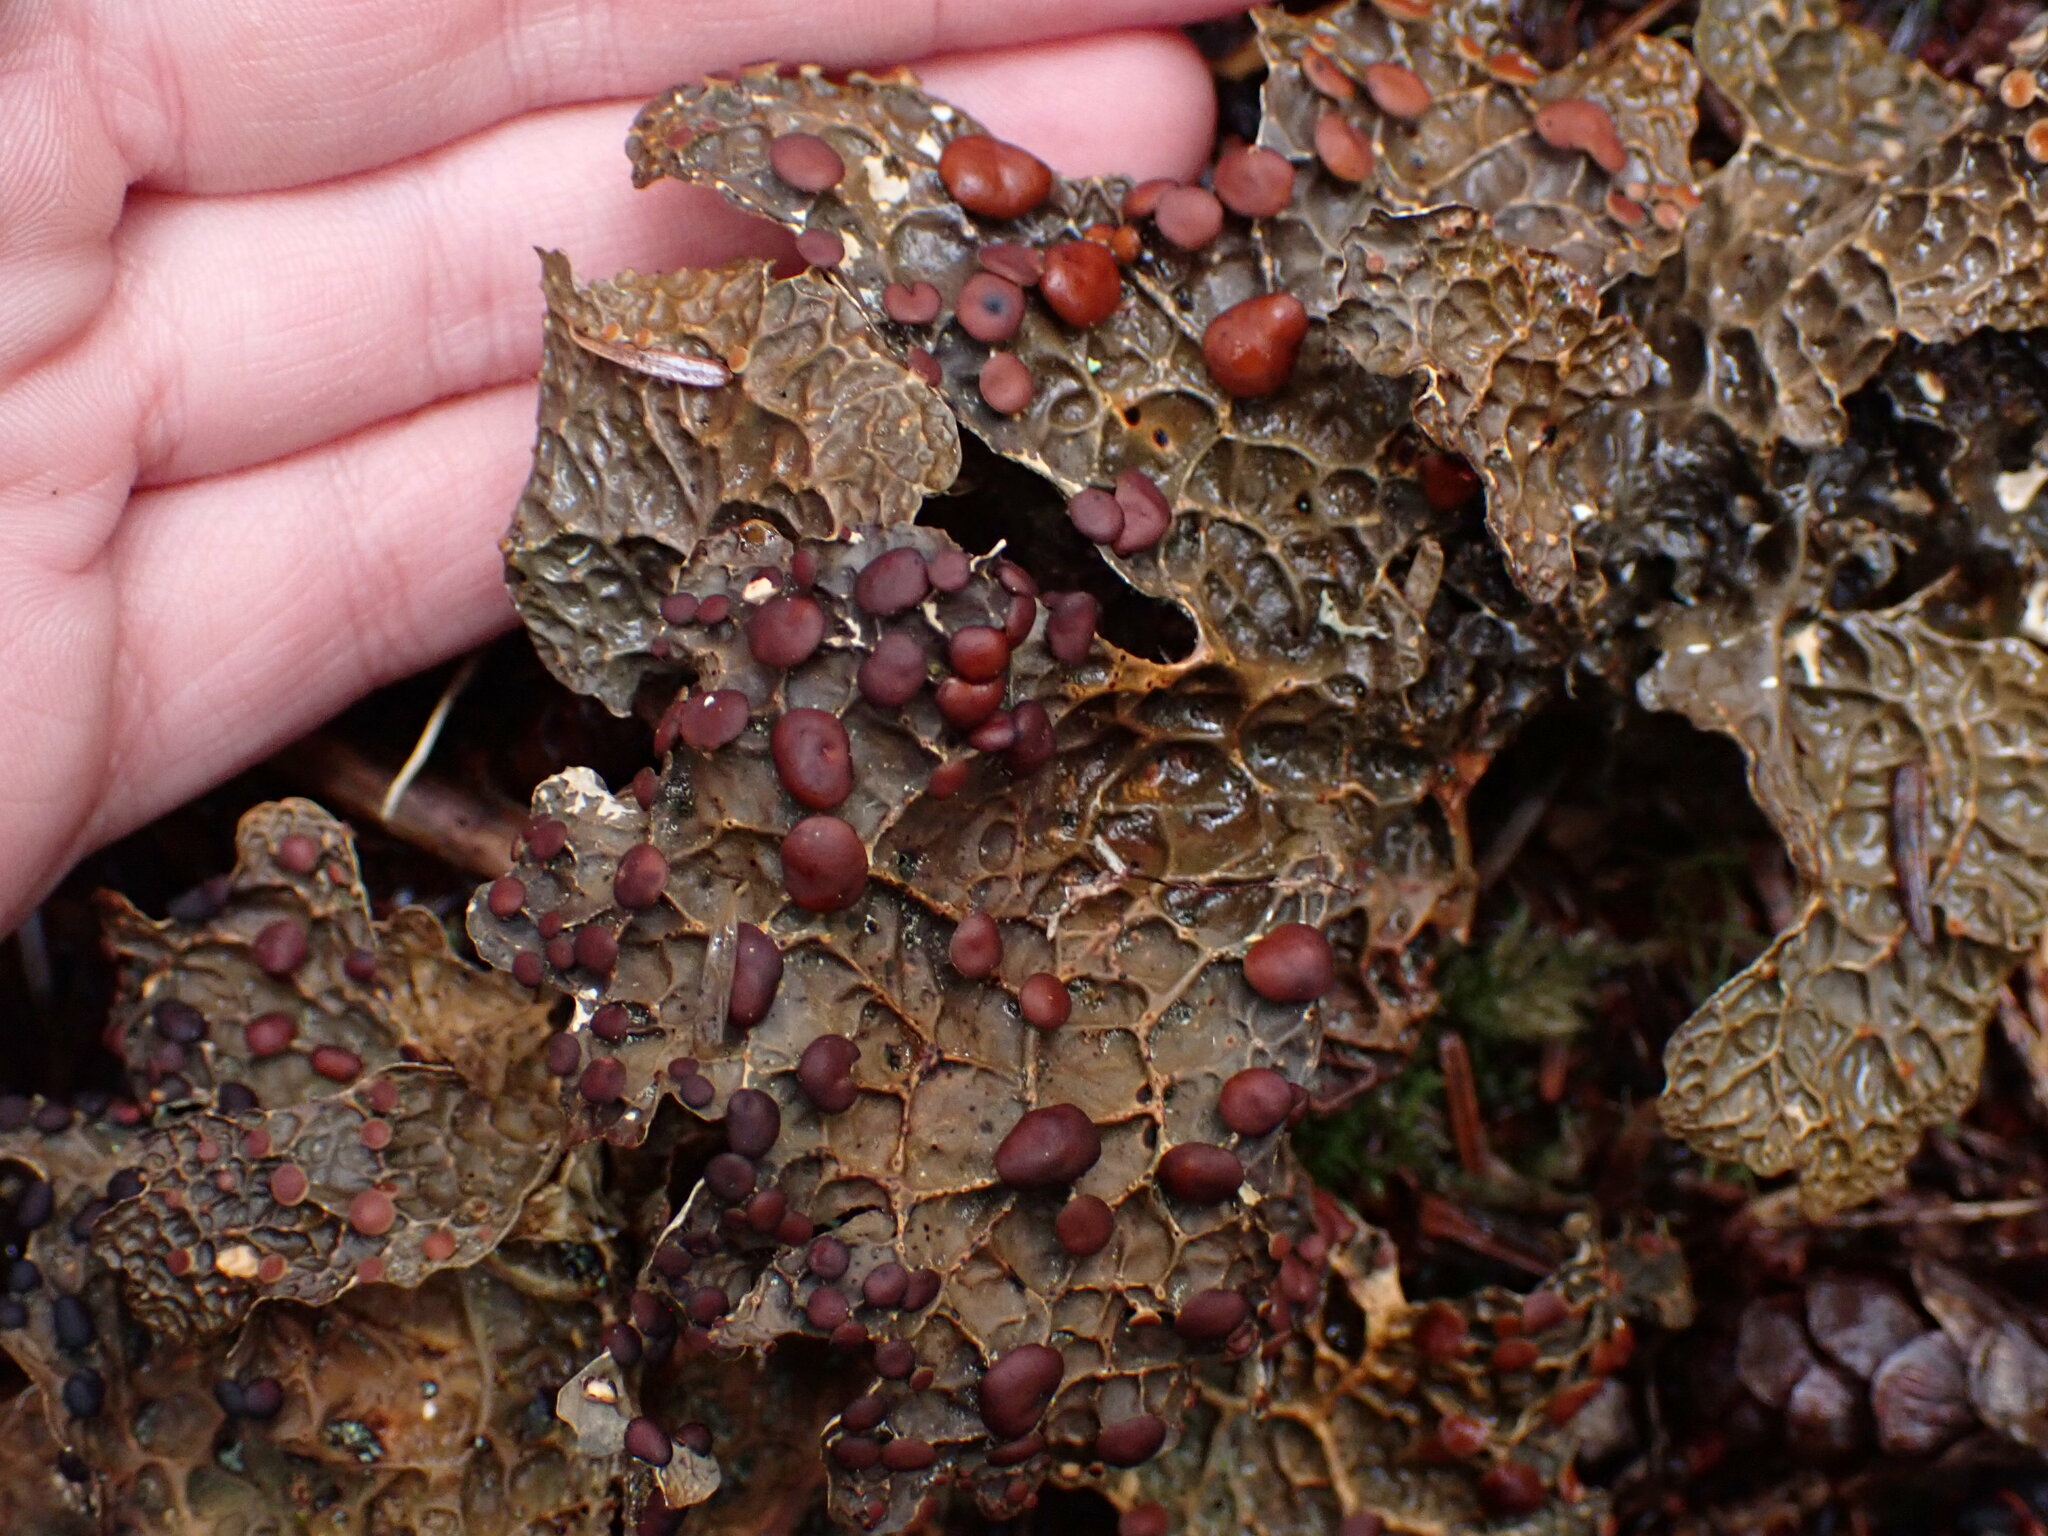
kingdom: Fungi
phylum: Ascomycota
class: Lecanoromycetes
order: Peltigerales
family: Lobariaceae
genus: Lobaria
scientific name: Lobaria anthraspis
